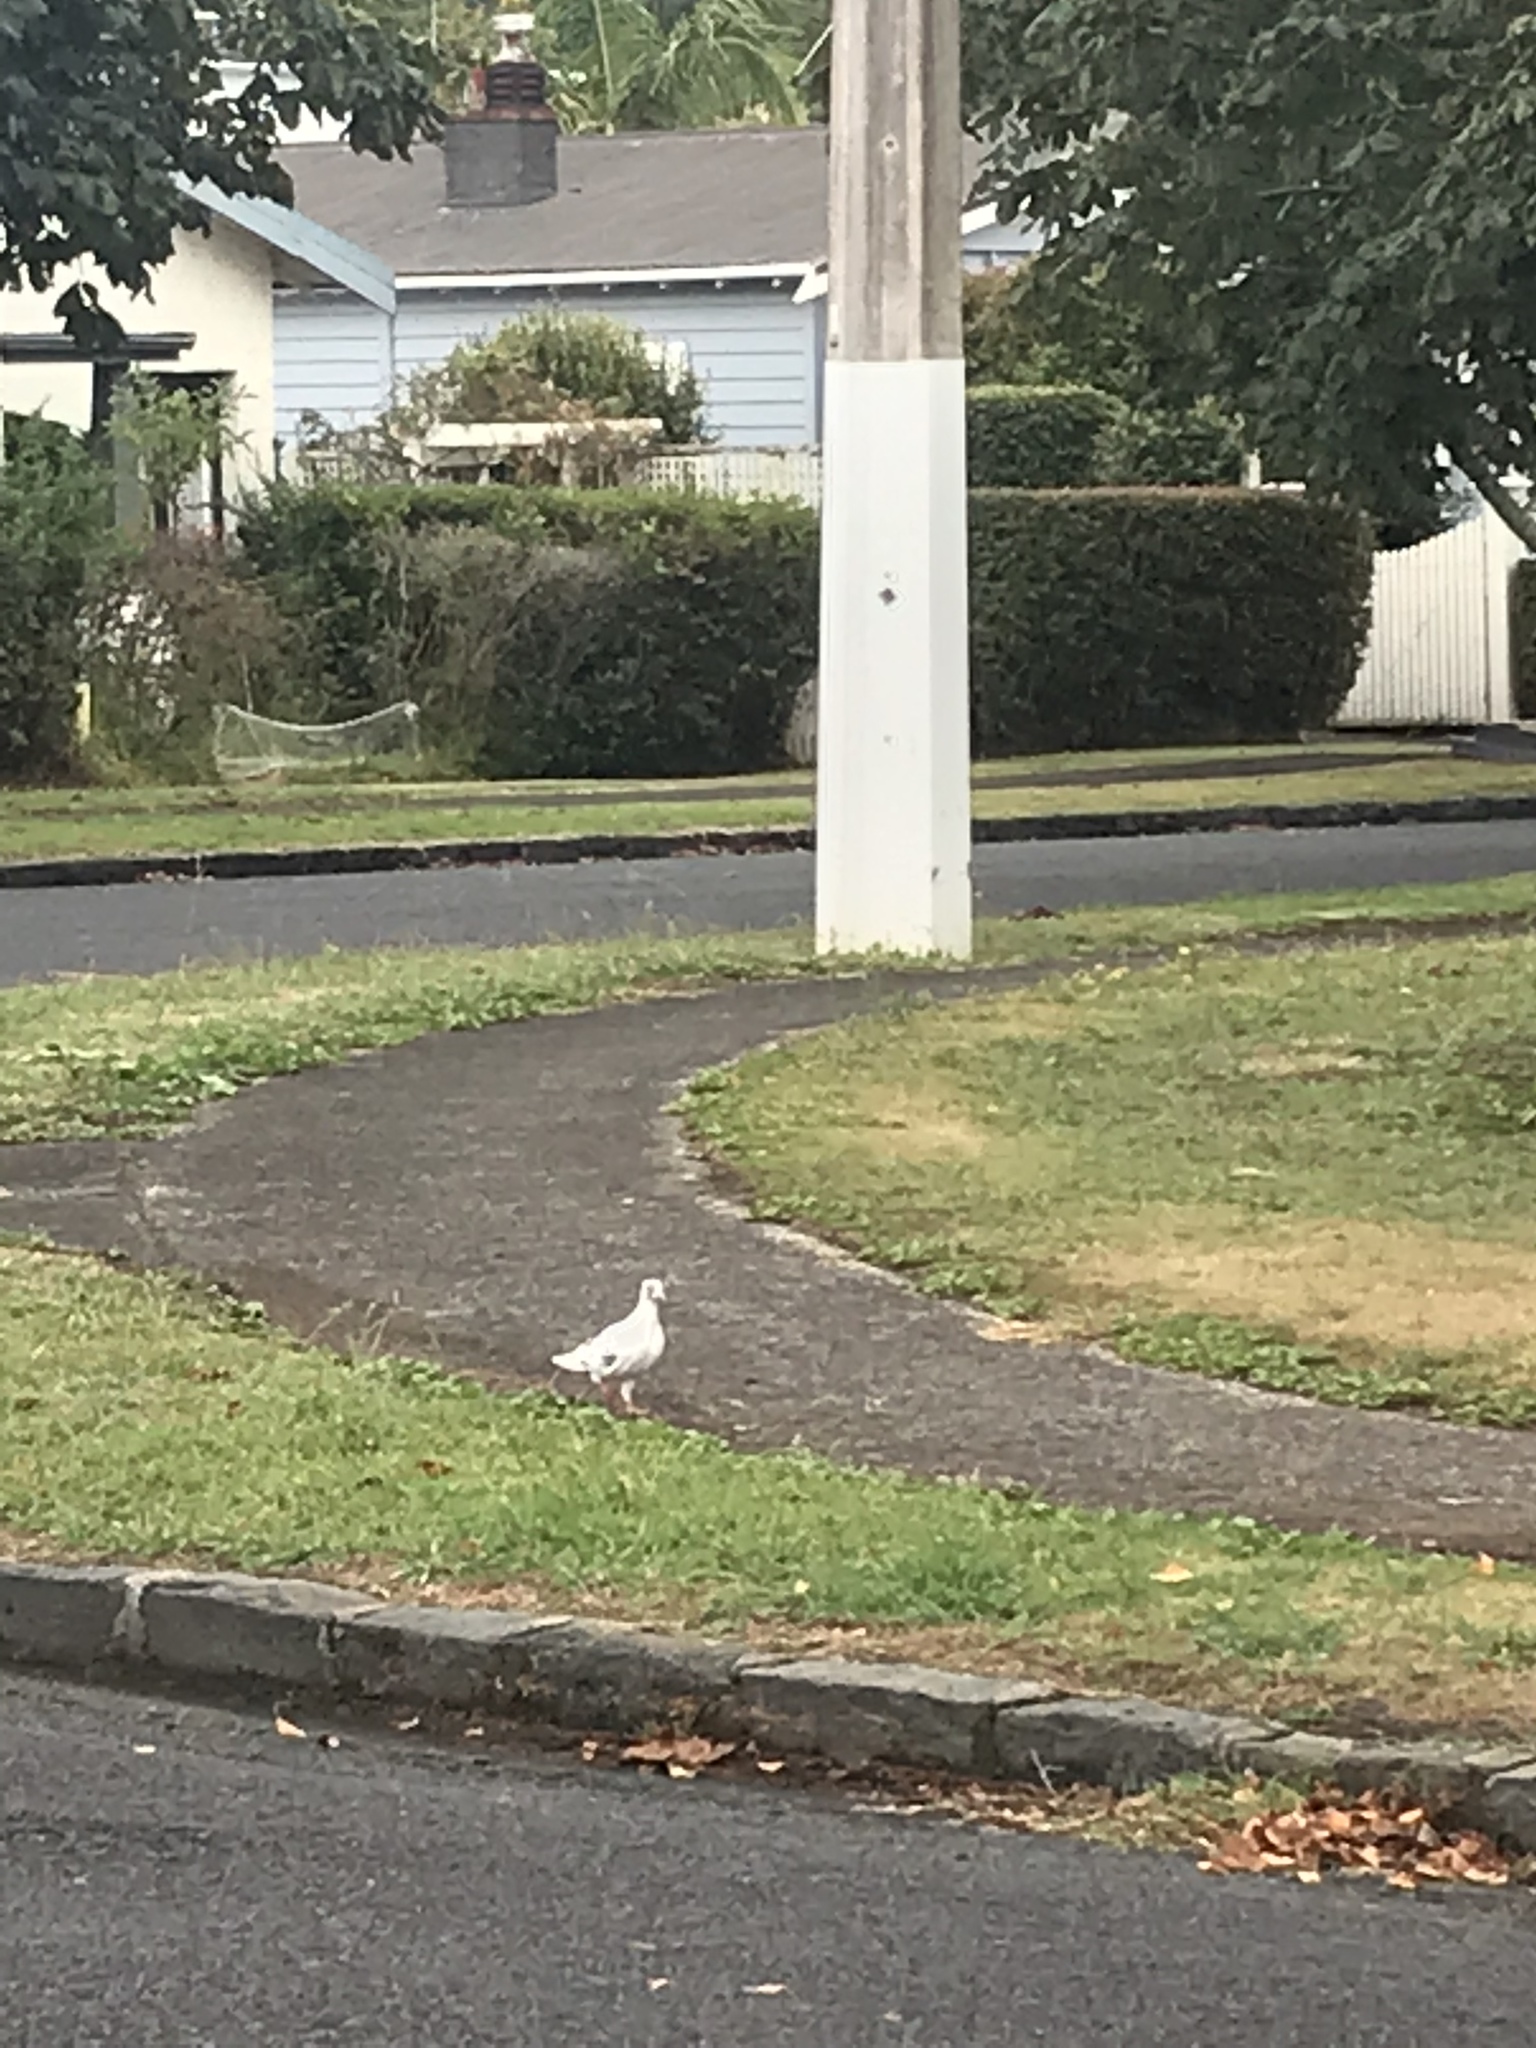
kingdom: Animalia
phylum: Chordata
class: Aves
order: Columbiformes
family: Columbidae
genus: Columba
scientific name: Columba livia
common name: Rock pigeon
